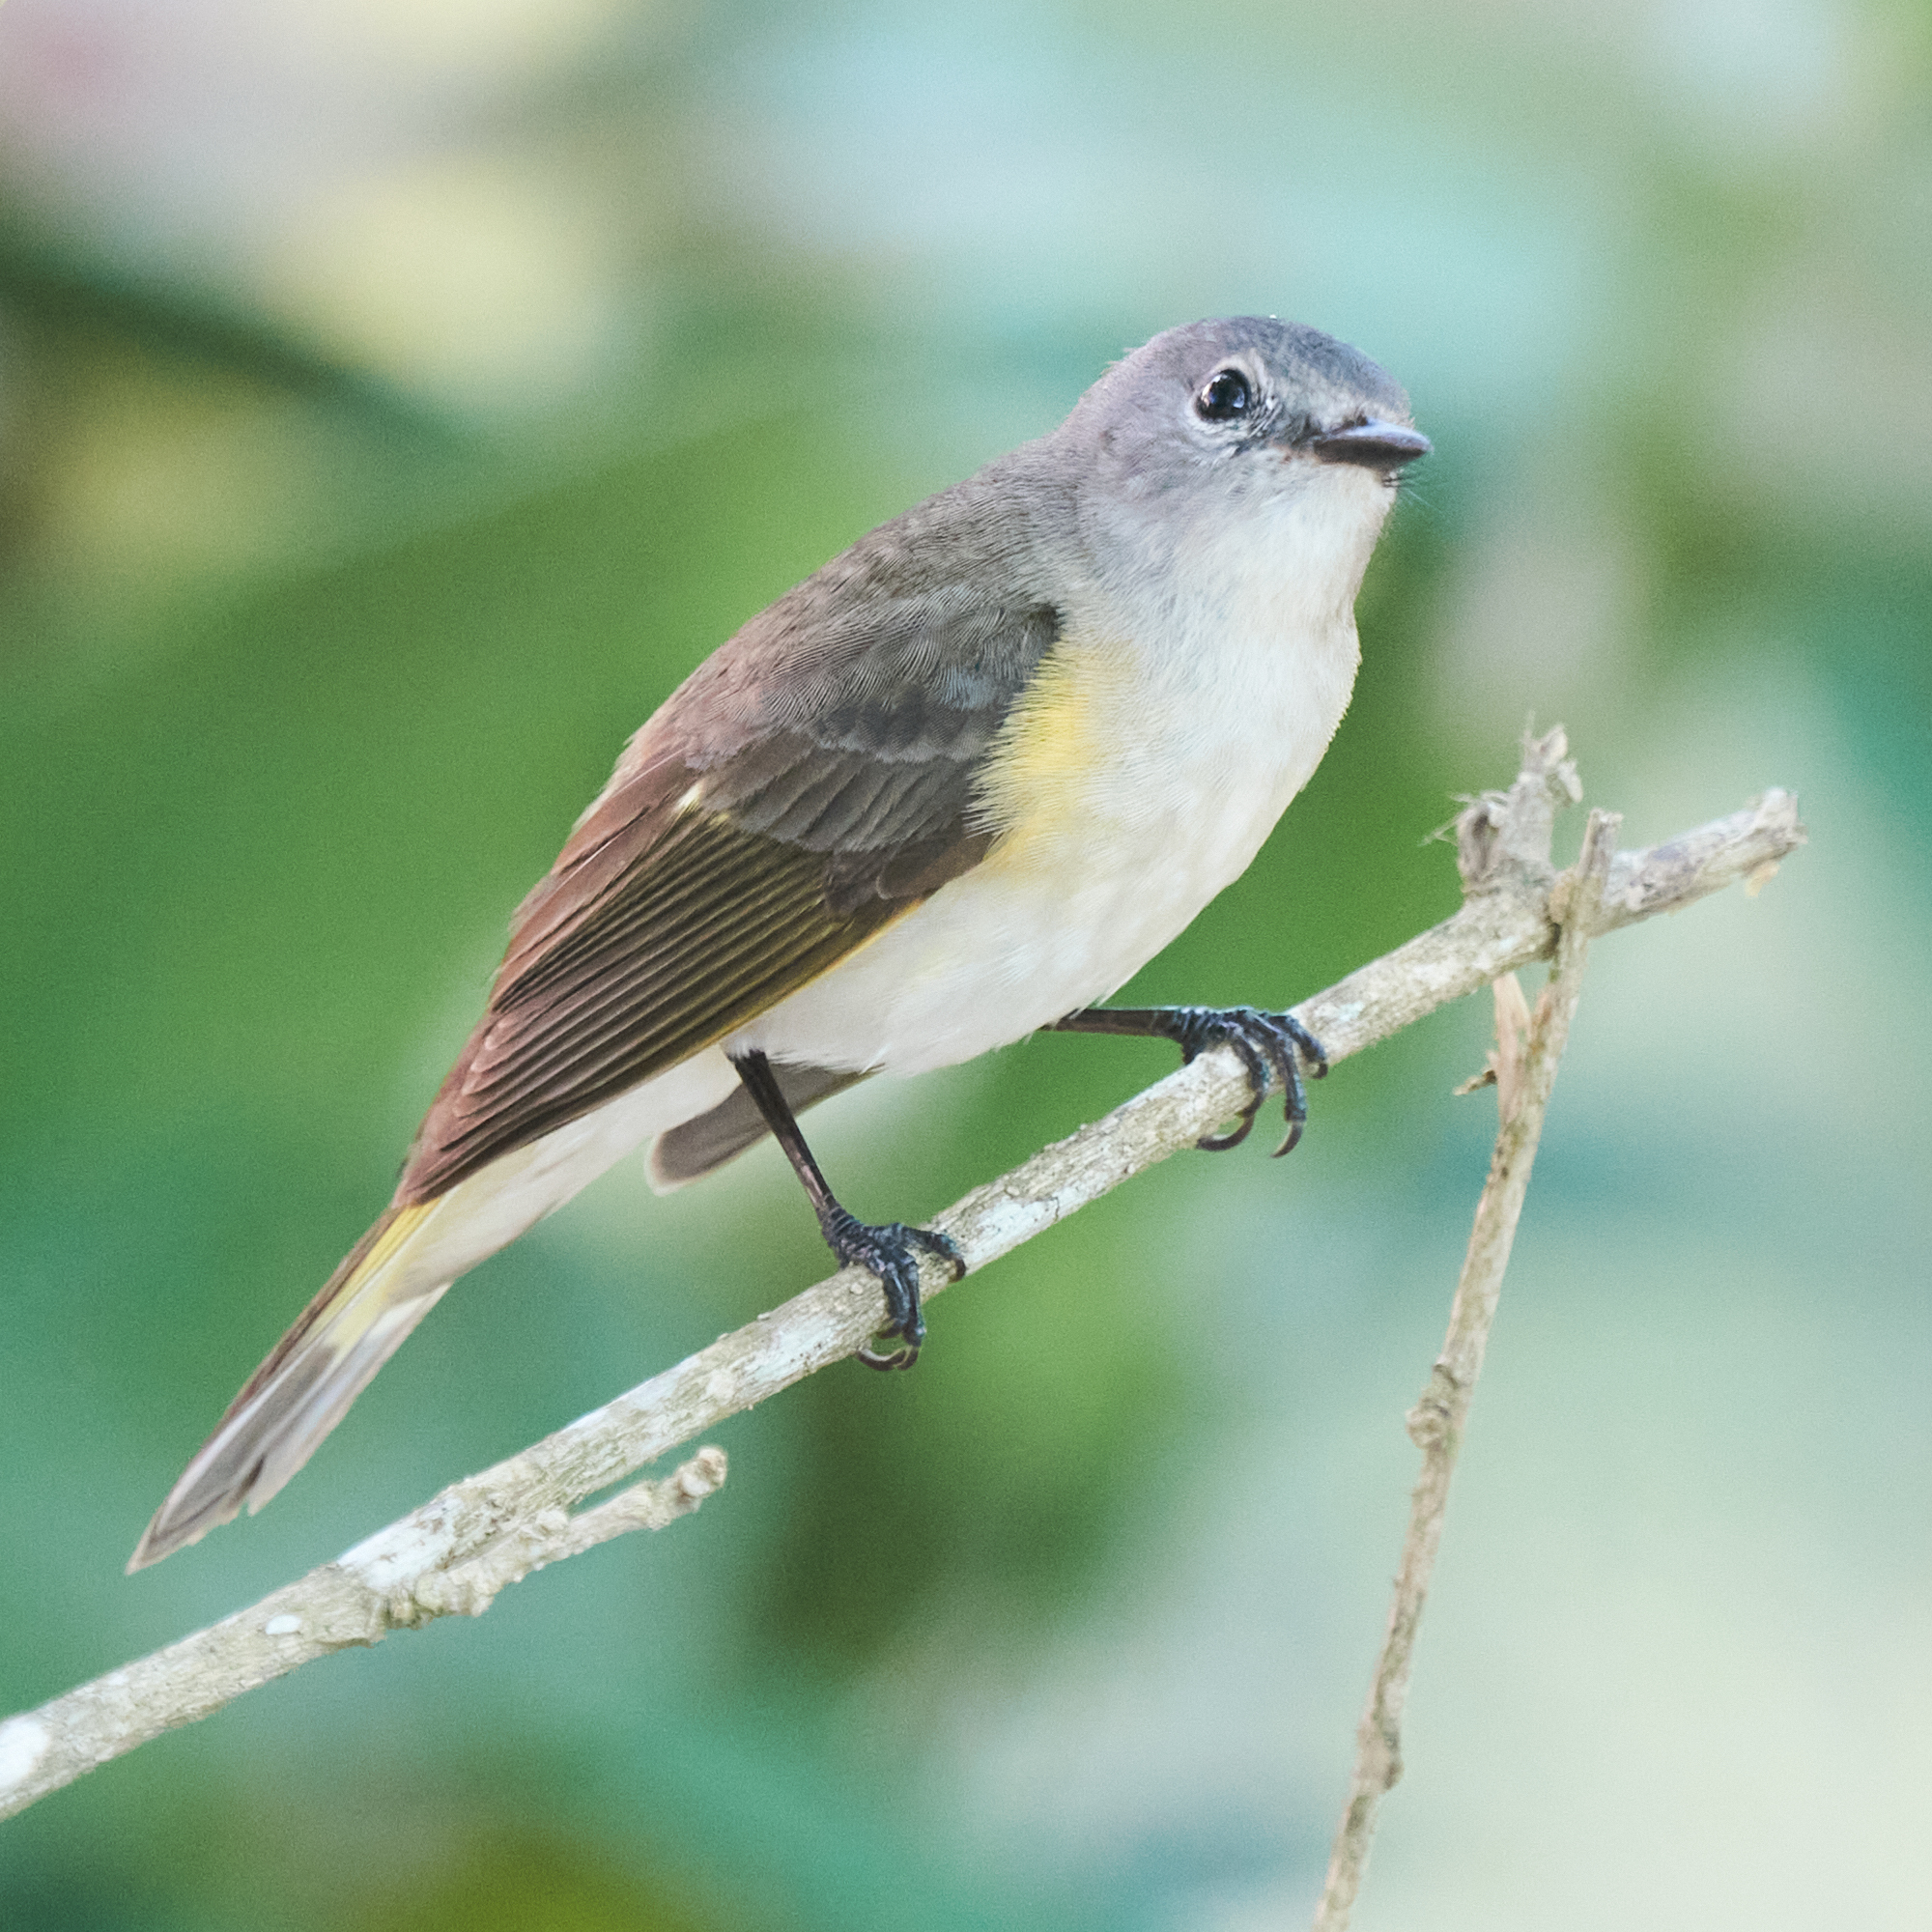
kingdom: Animalia
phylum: Chordata
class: Aves
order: Passeriformes
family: Parulidae
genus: Setophaga
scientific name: Setophaga ruticilla
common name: American redstart
